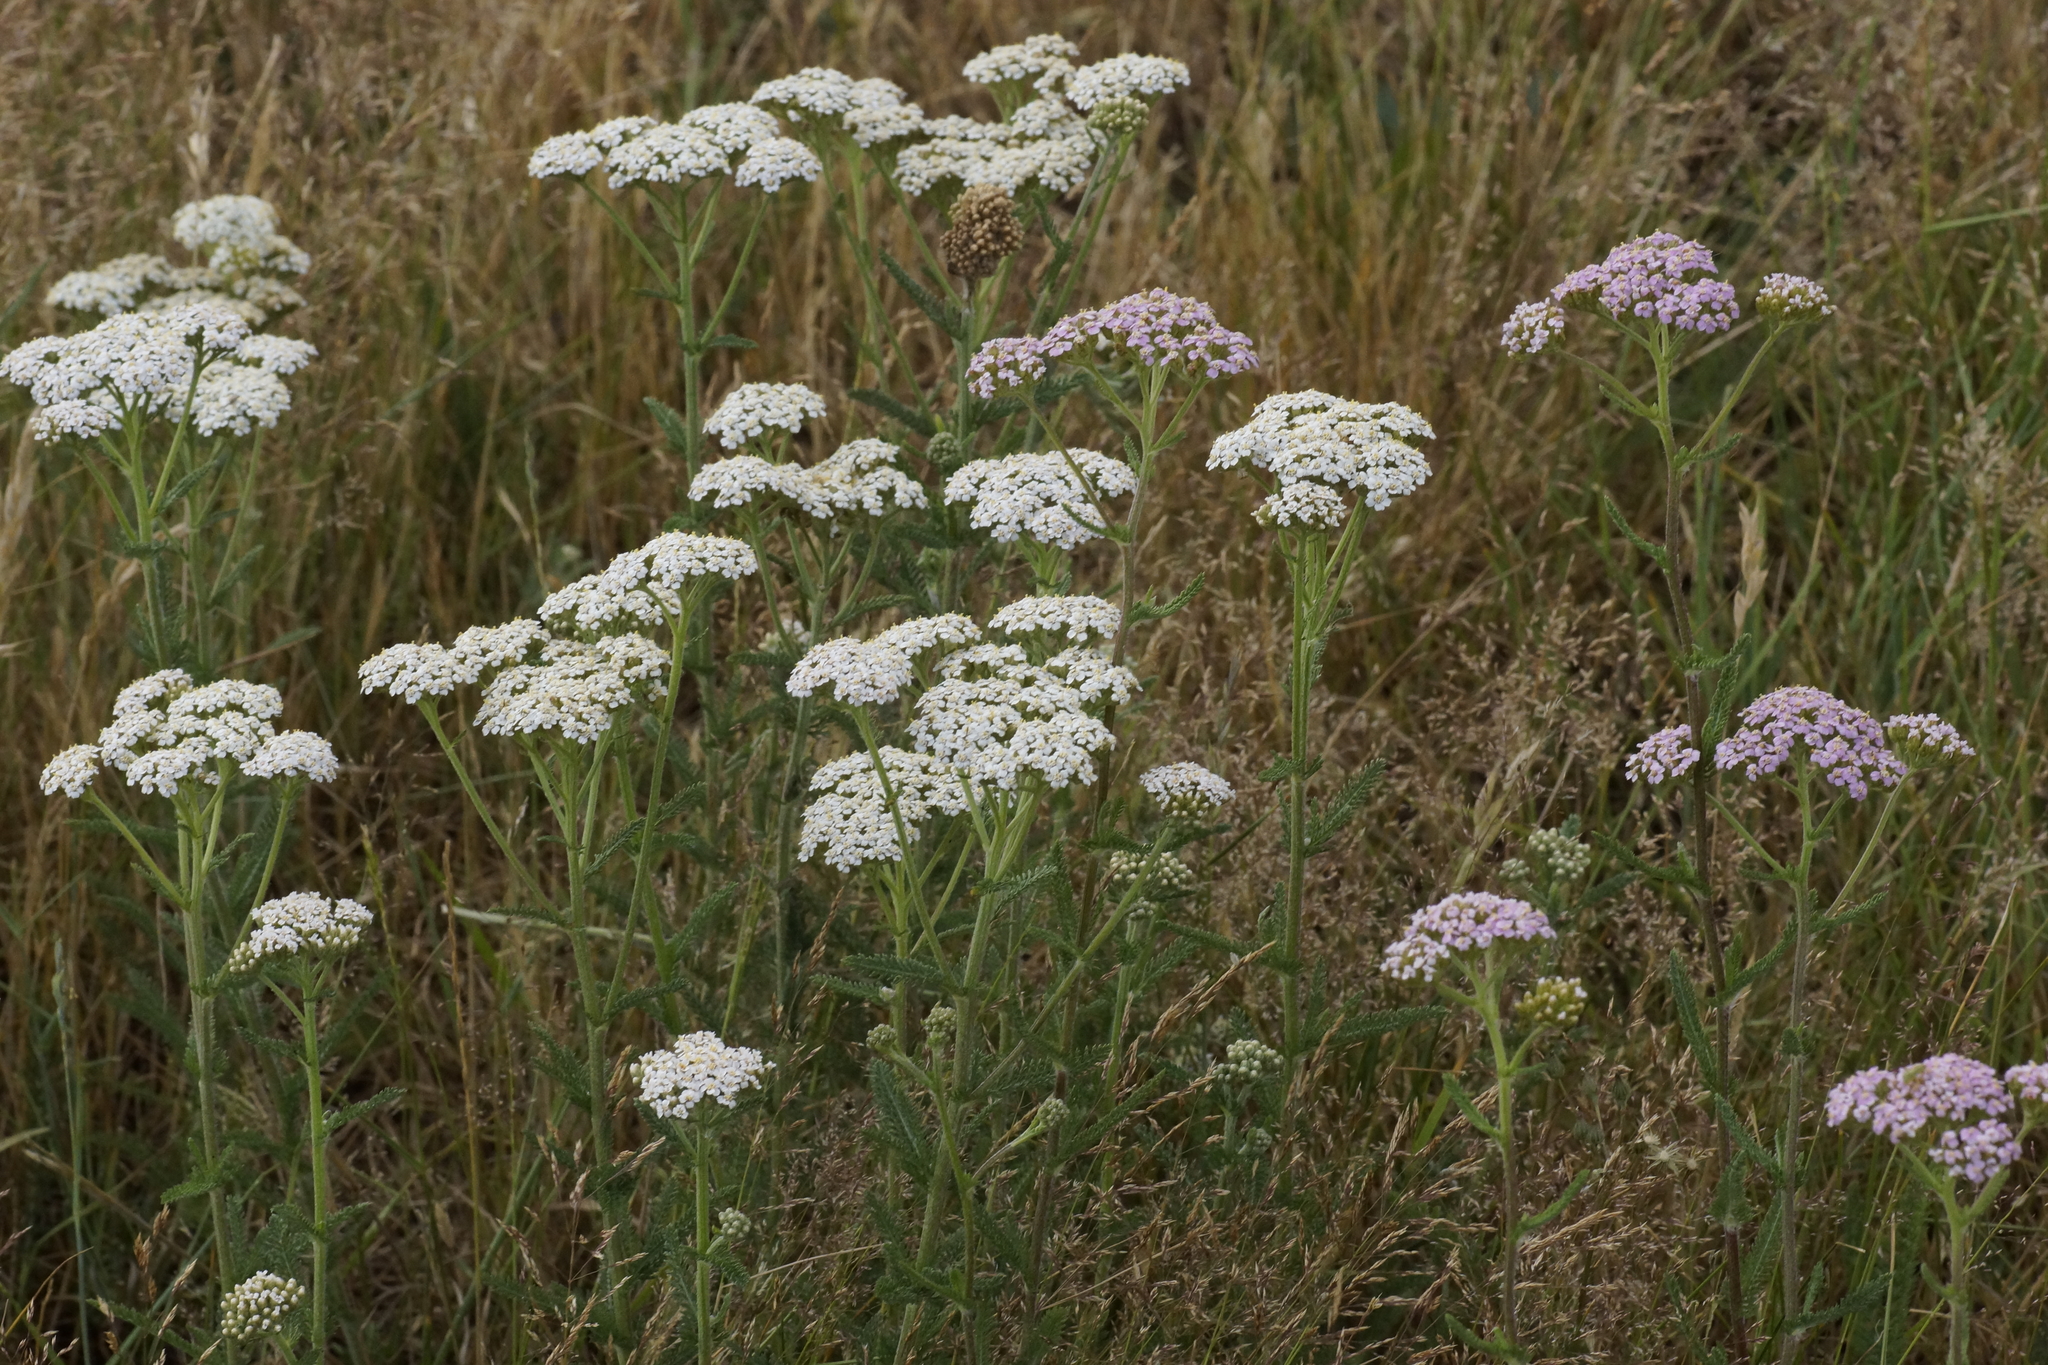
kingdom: Plantae
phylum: Tracheophyta
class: Magnoliopsida
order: Asterales
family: Asteraceae
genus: Achillea
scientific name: Achillea millefolium
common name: Yarrow
